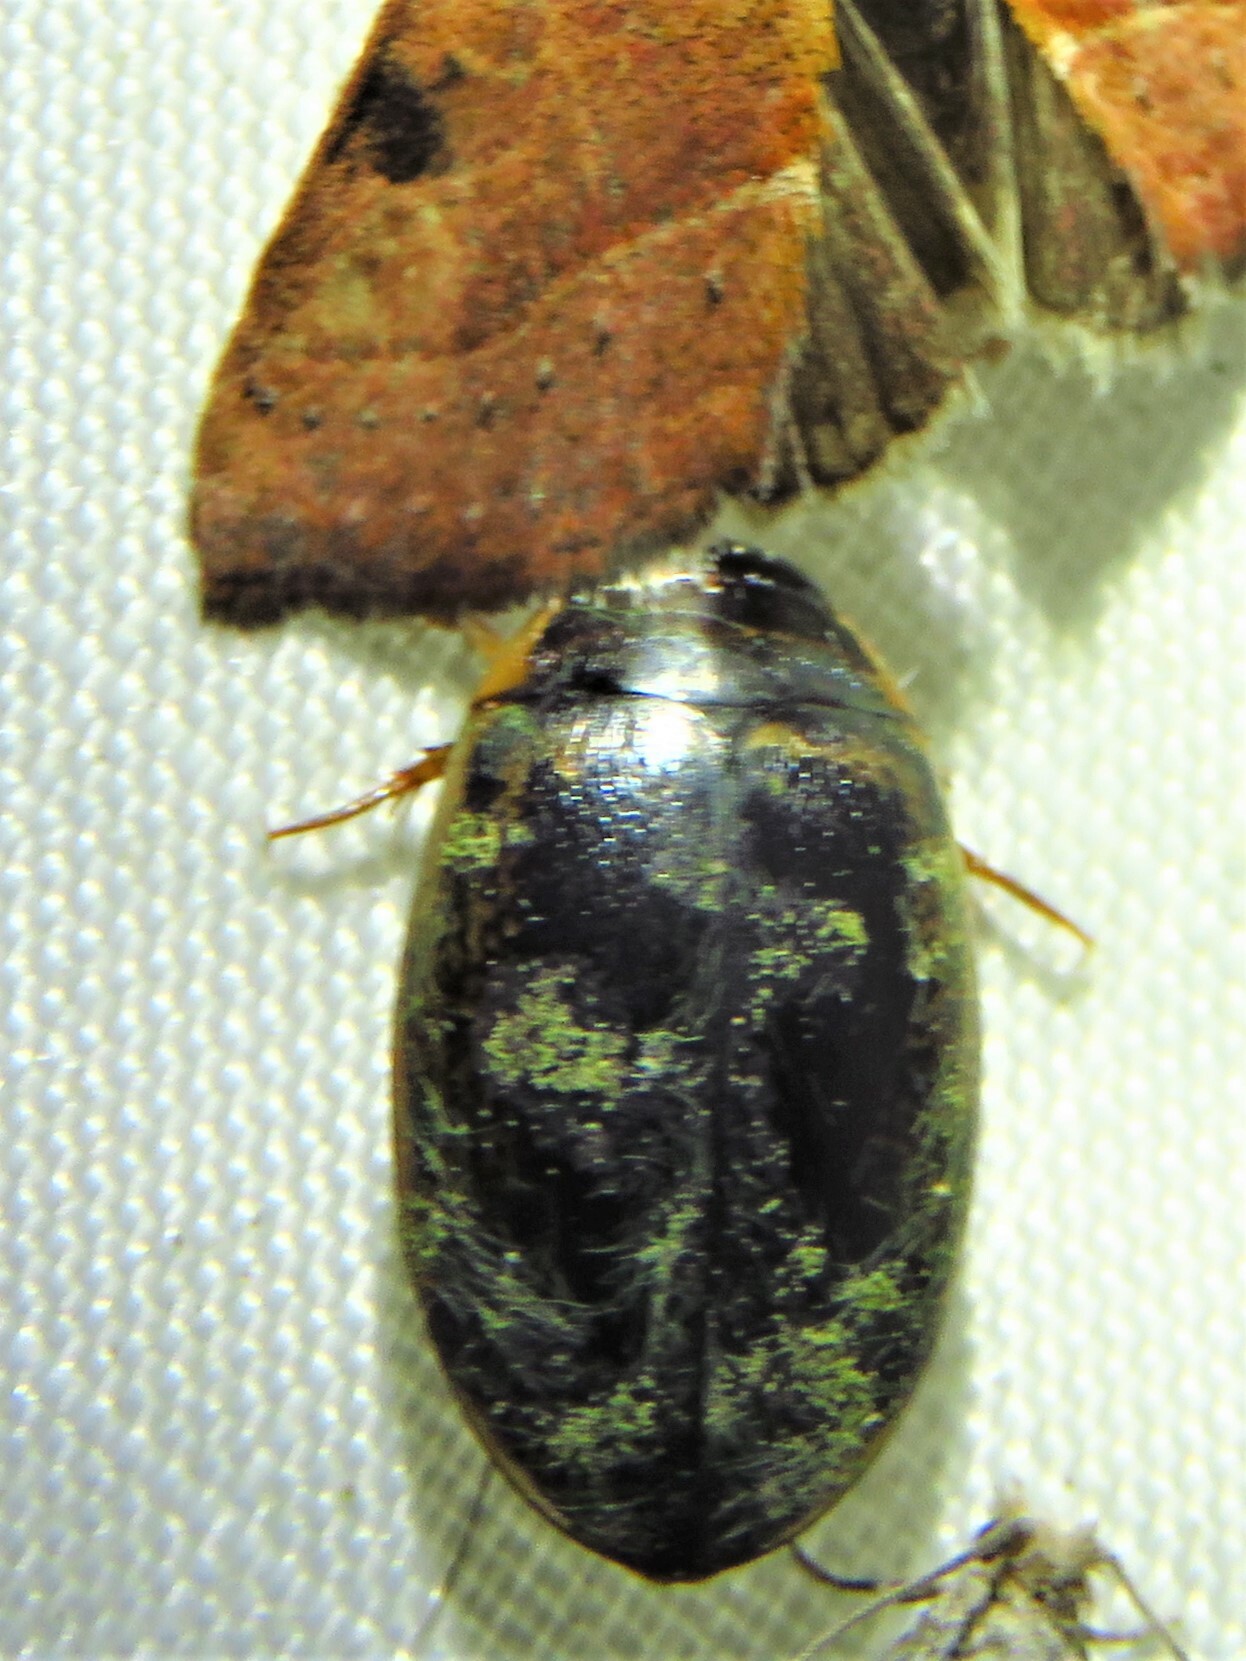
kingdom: Animalia
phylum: Arthropoda
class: Insecta
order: Coleoptera
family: Dytiscidae
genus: Thermonectus
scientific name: Thermonectus basillaris
